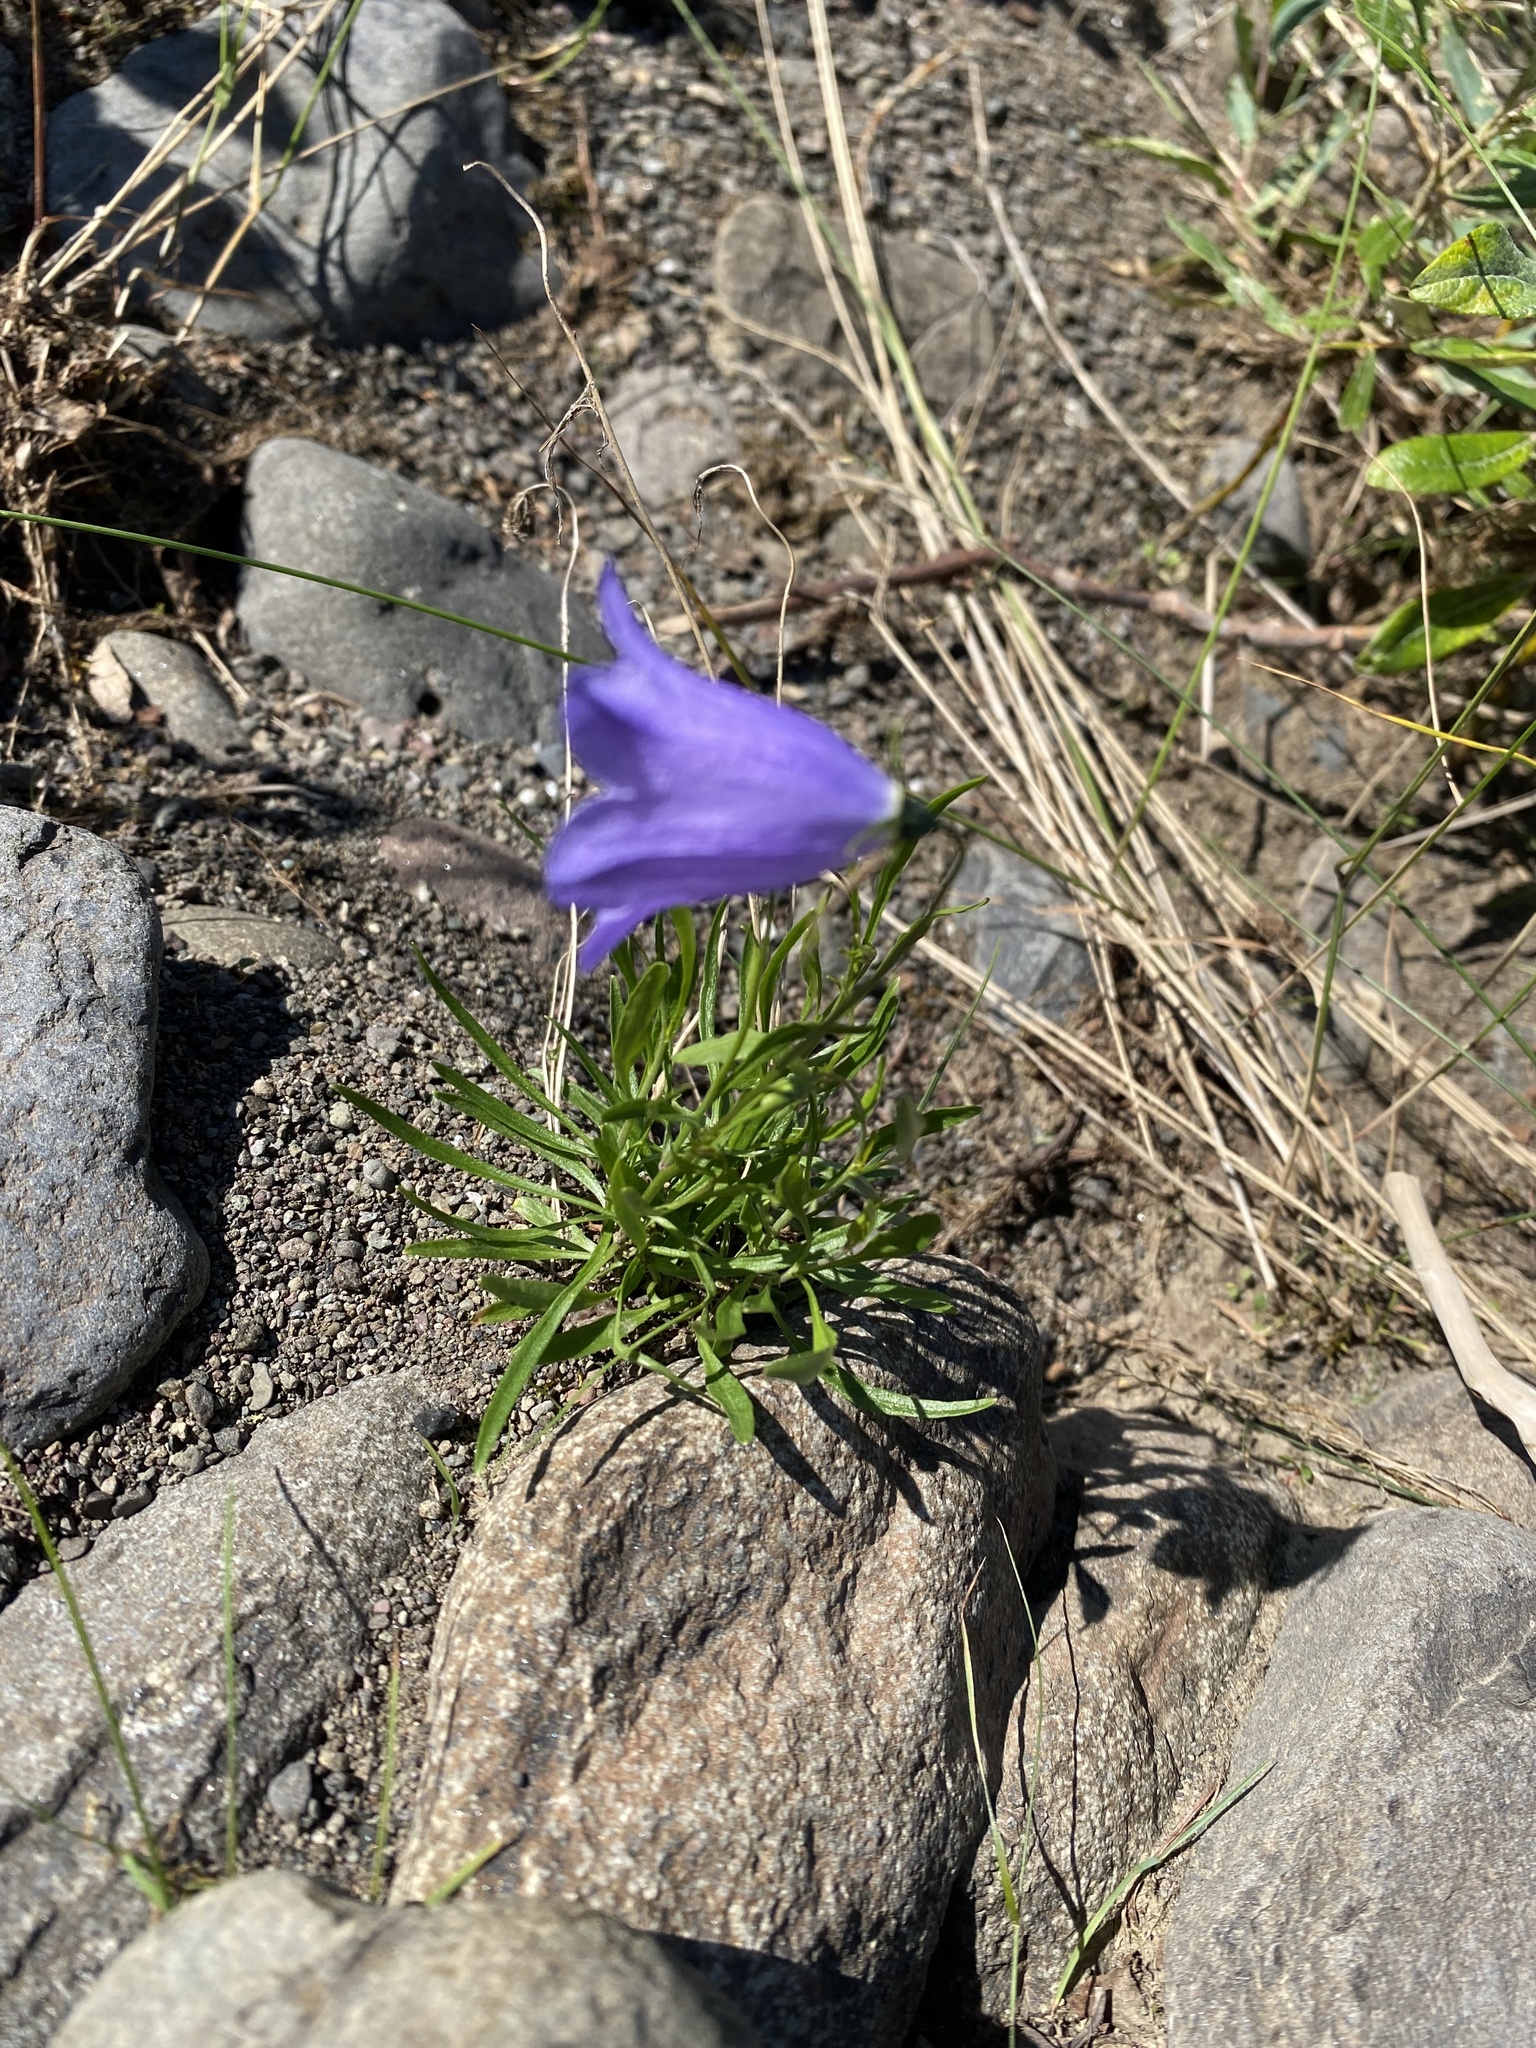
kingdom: Plantae
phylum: Tracheophyta
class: Magnoliopsida
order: Asterales
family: Campanulaceae
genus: Campanula
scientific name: Campanula rotundifolia
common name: Harebell
